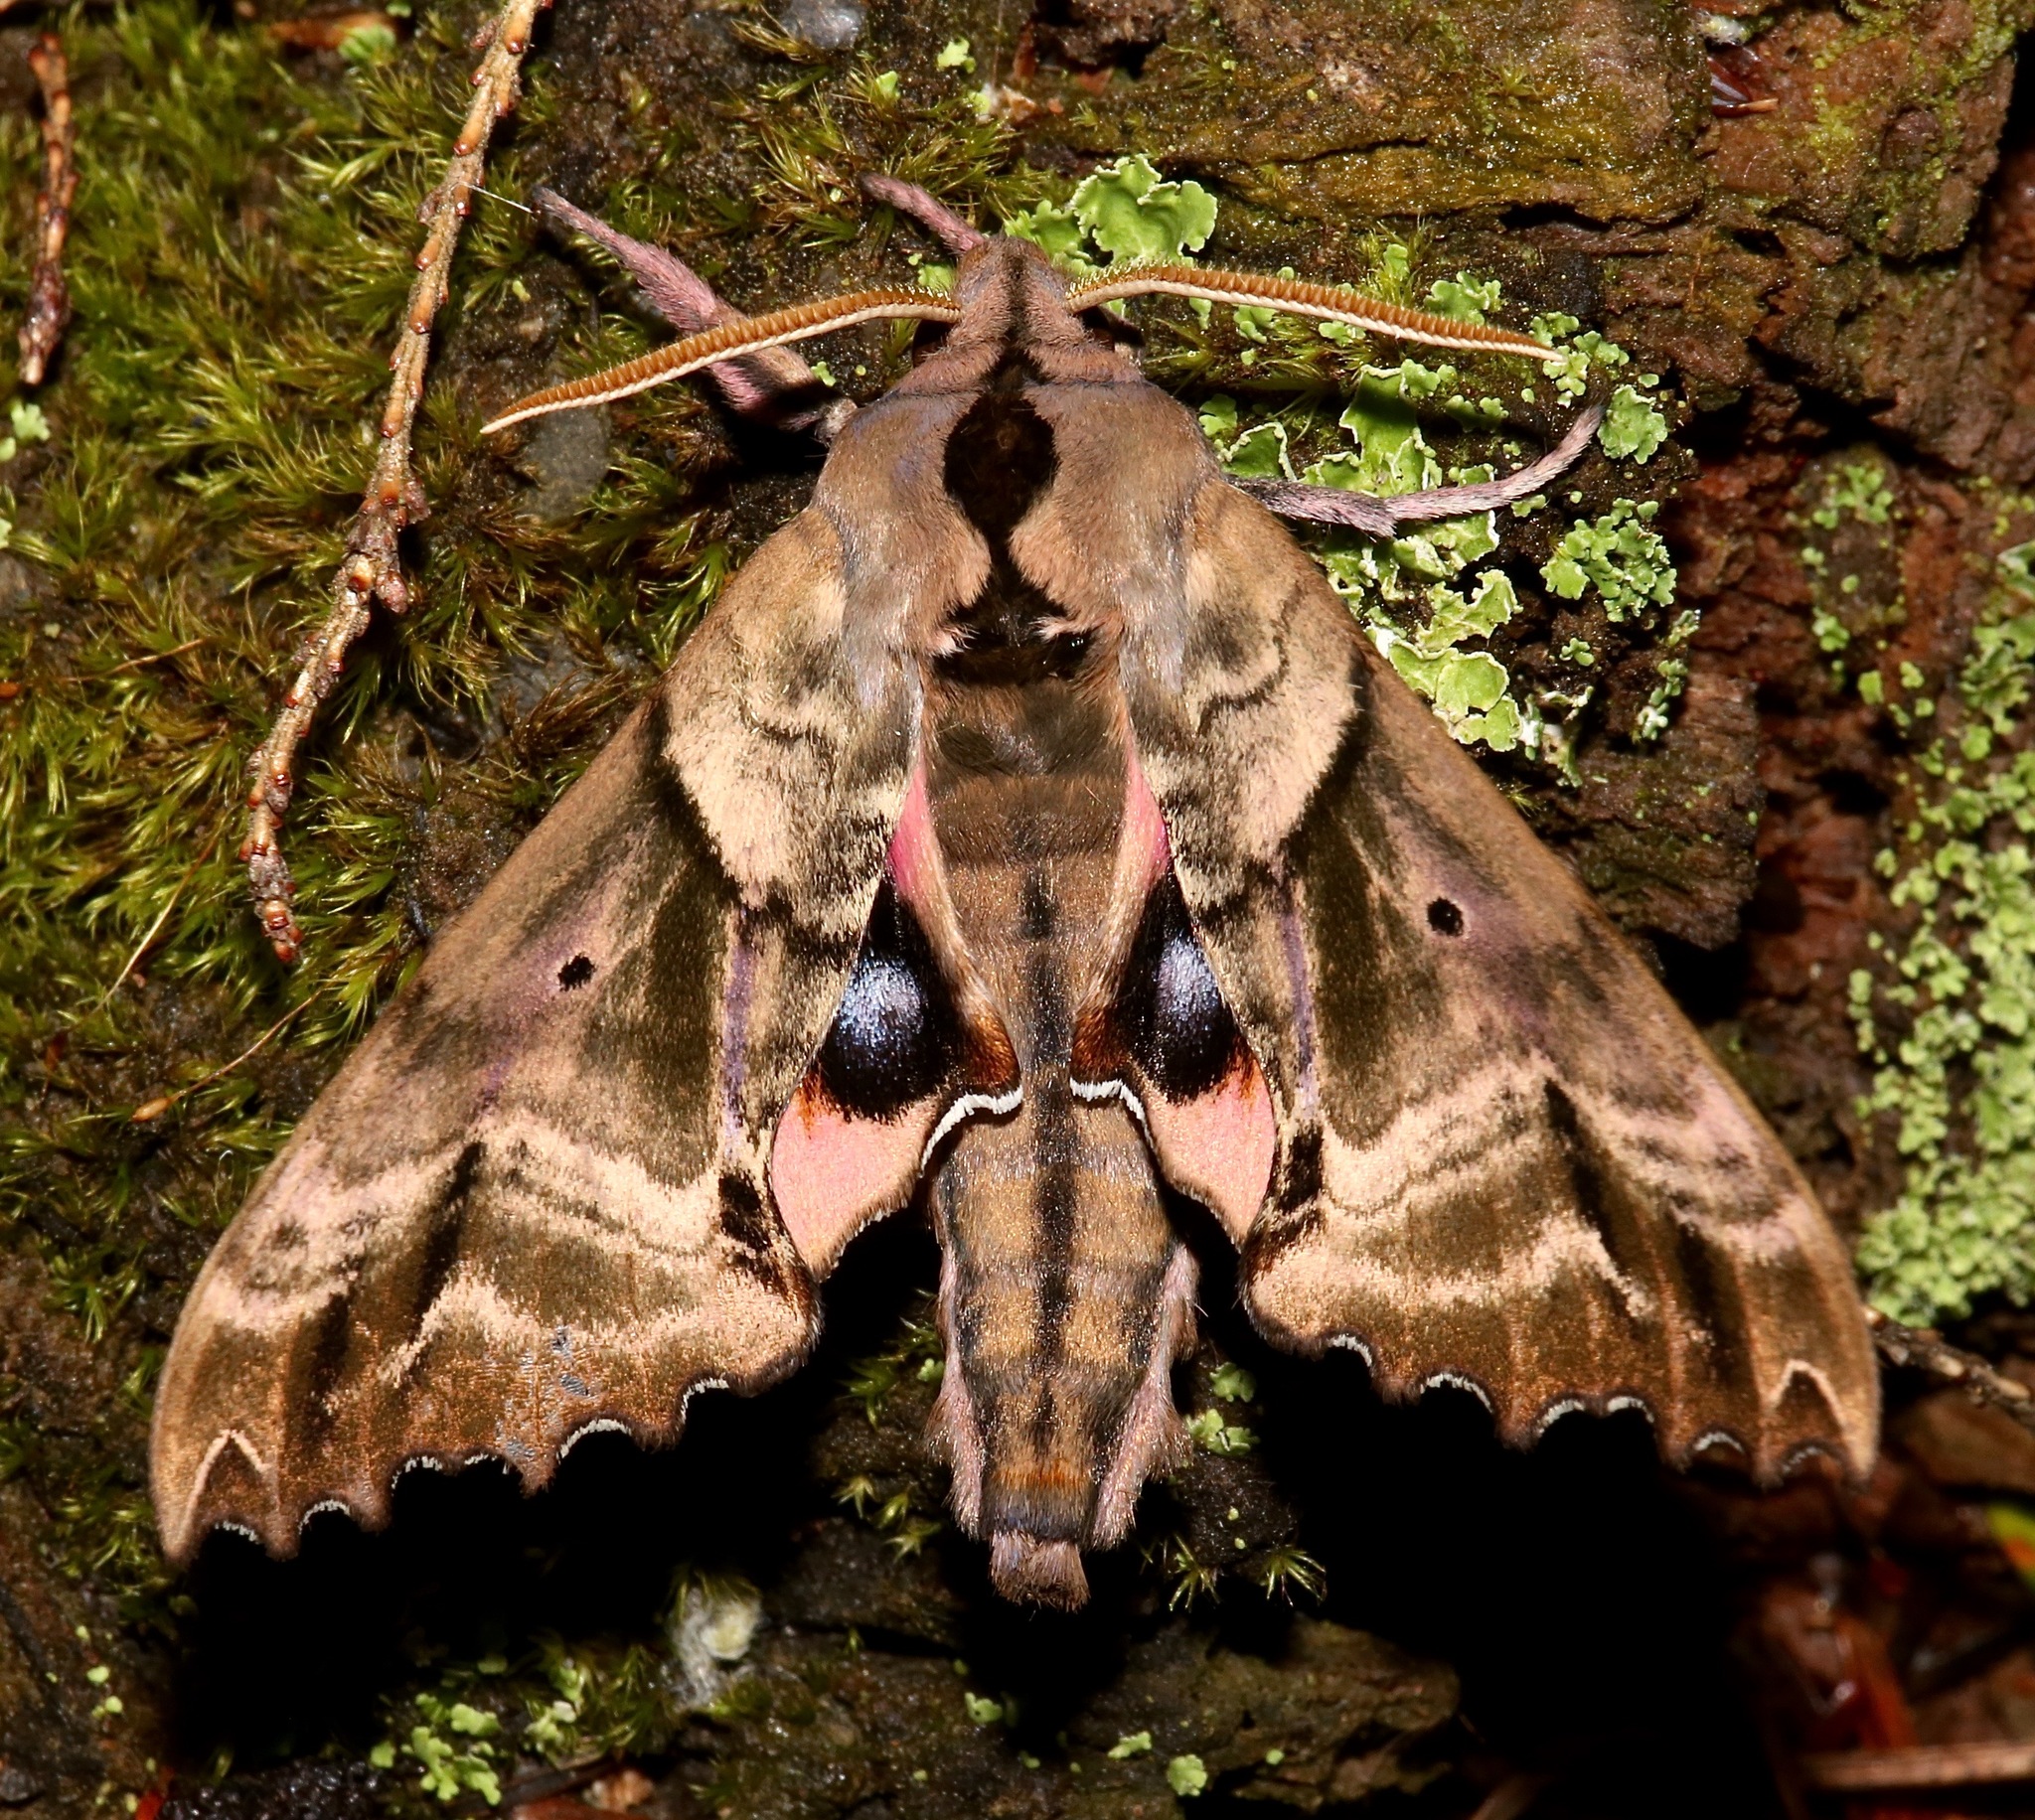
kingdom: Animalia
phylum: Arthropoda
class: Insecta
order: Lepidoptera
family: Sphingidae
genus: Paonias
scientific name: Paonias excaecata
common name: Blind-eyed sphinx
